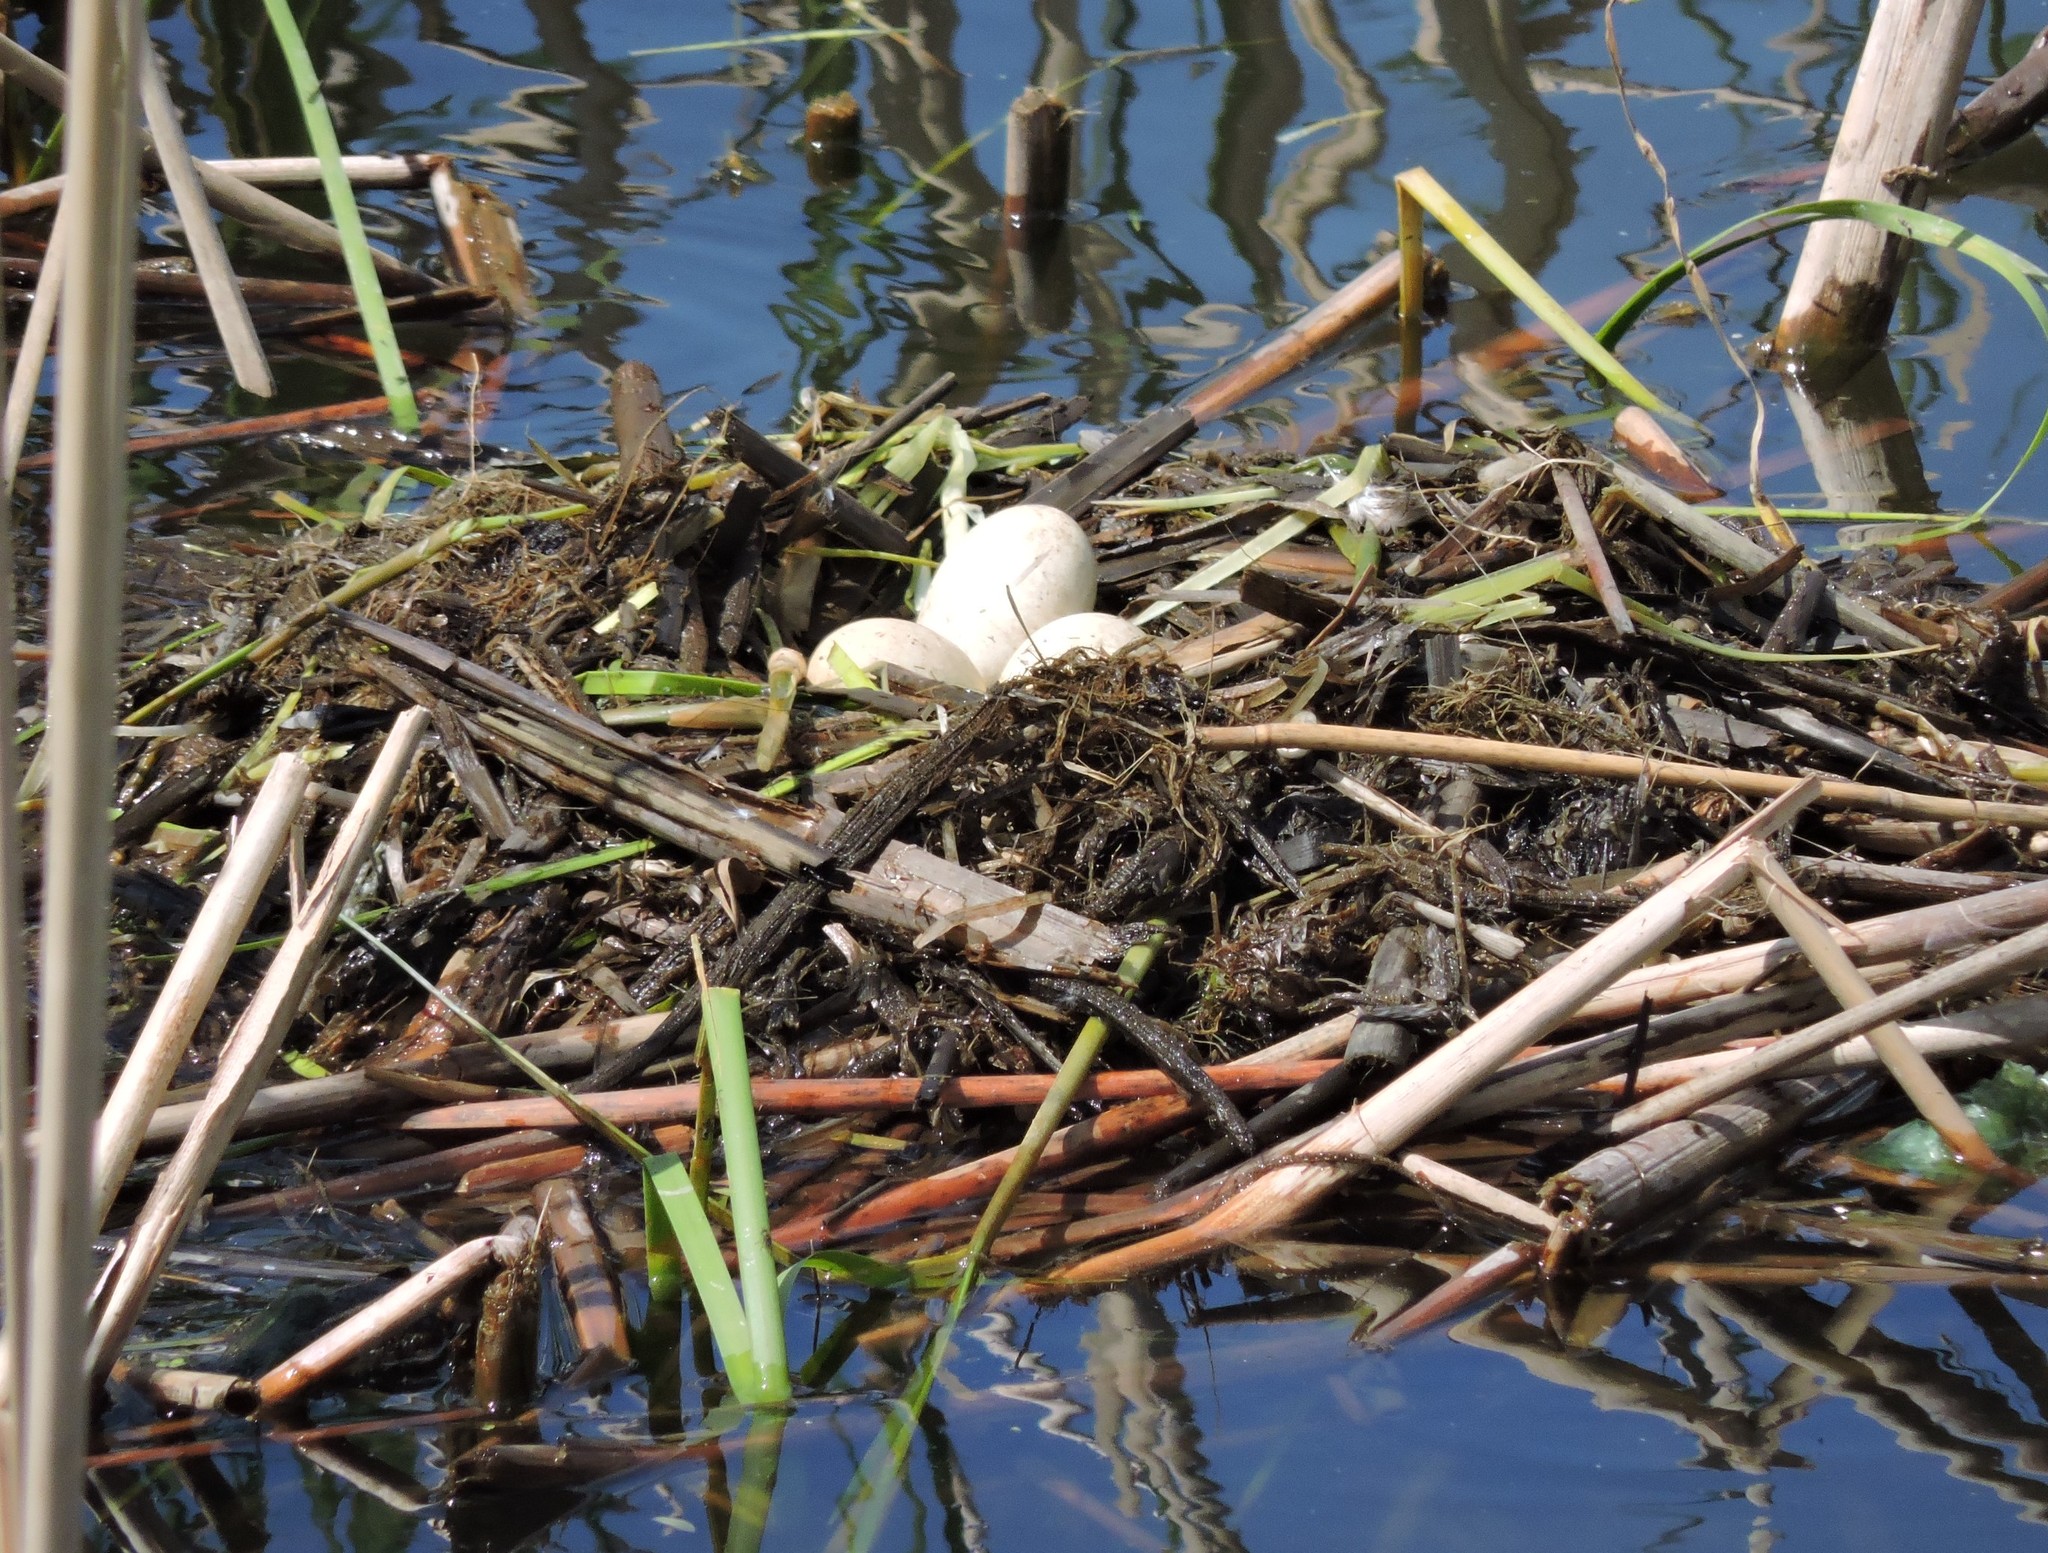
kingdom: Animalia
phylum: Chordata
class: Aves
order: Podicipediformes
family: Podicipedidae
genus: Podiceps
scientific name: Podiceps cristatus
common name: Great crested grebe
